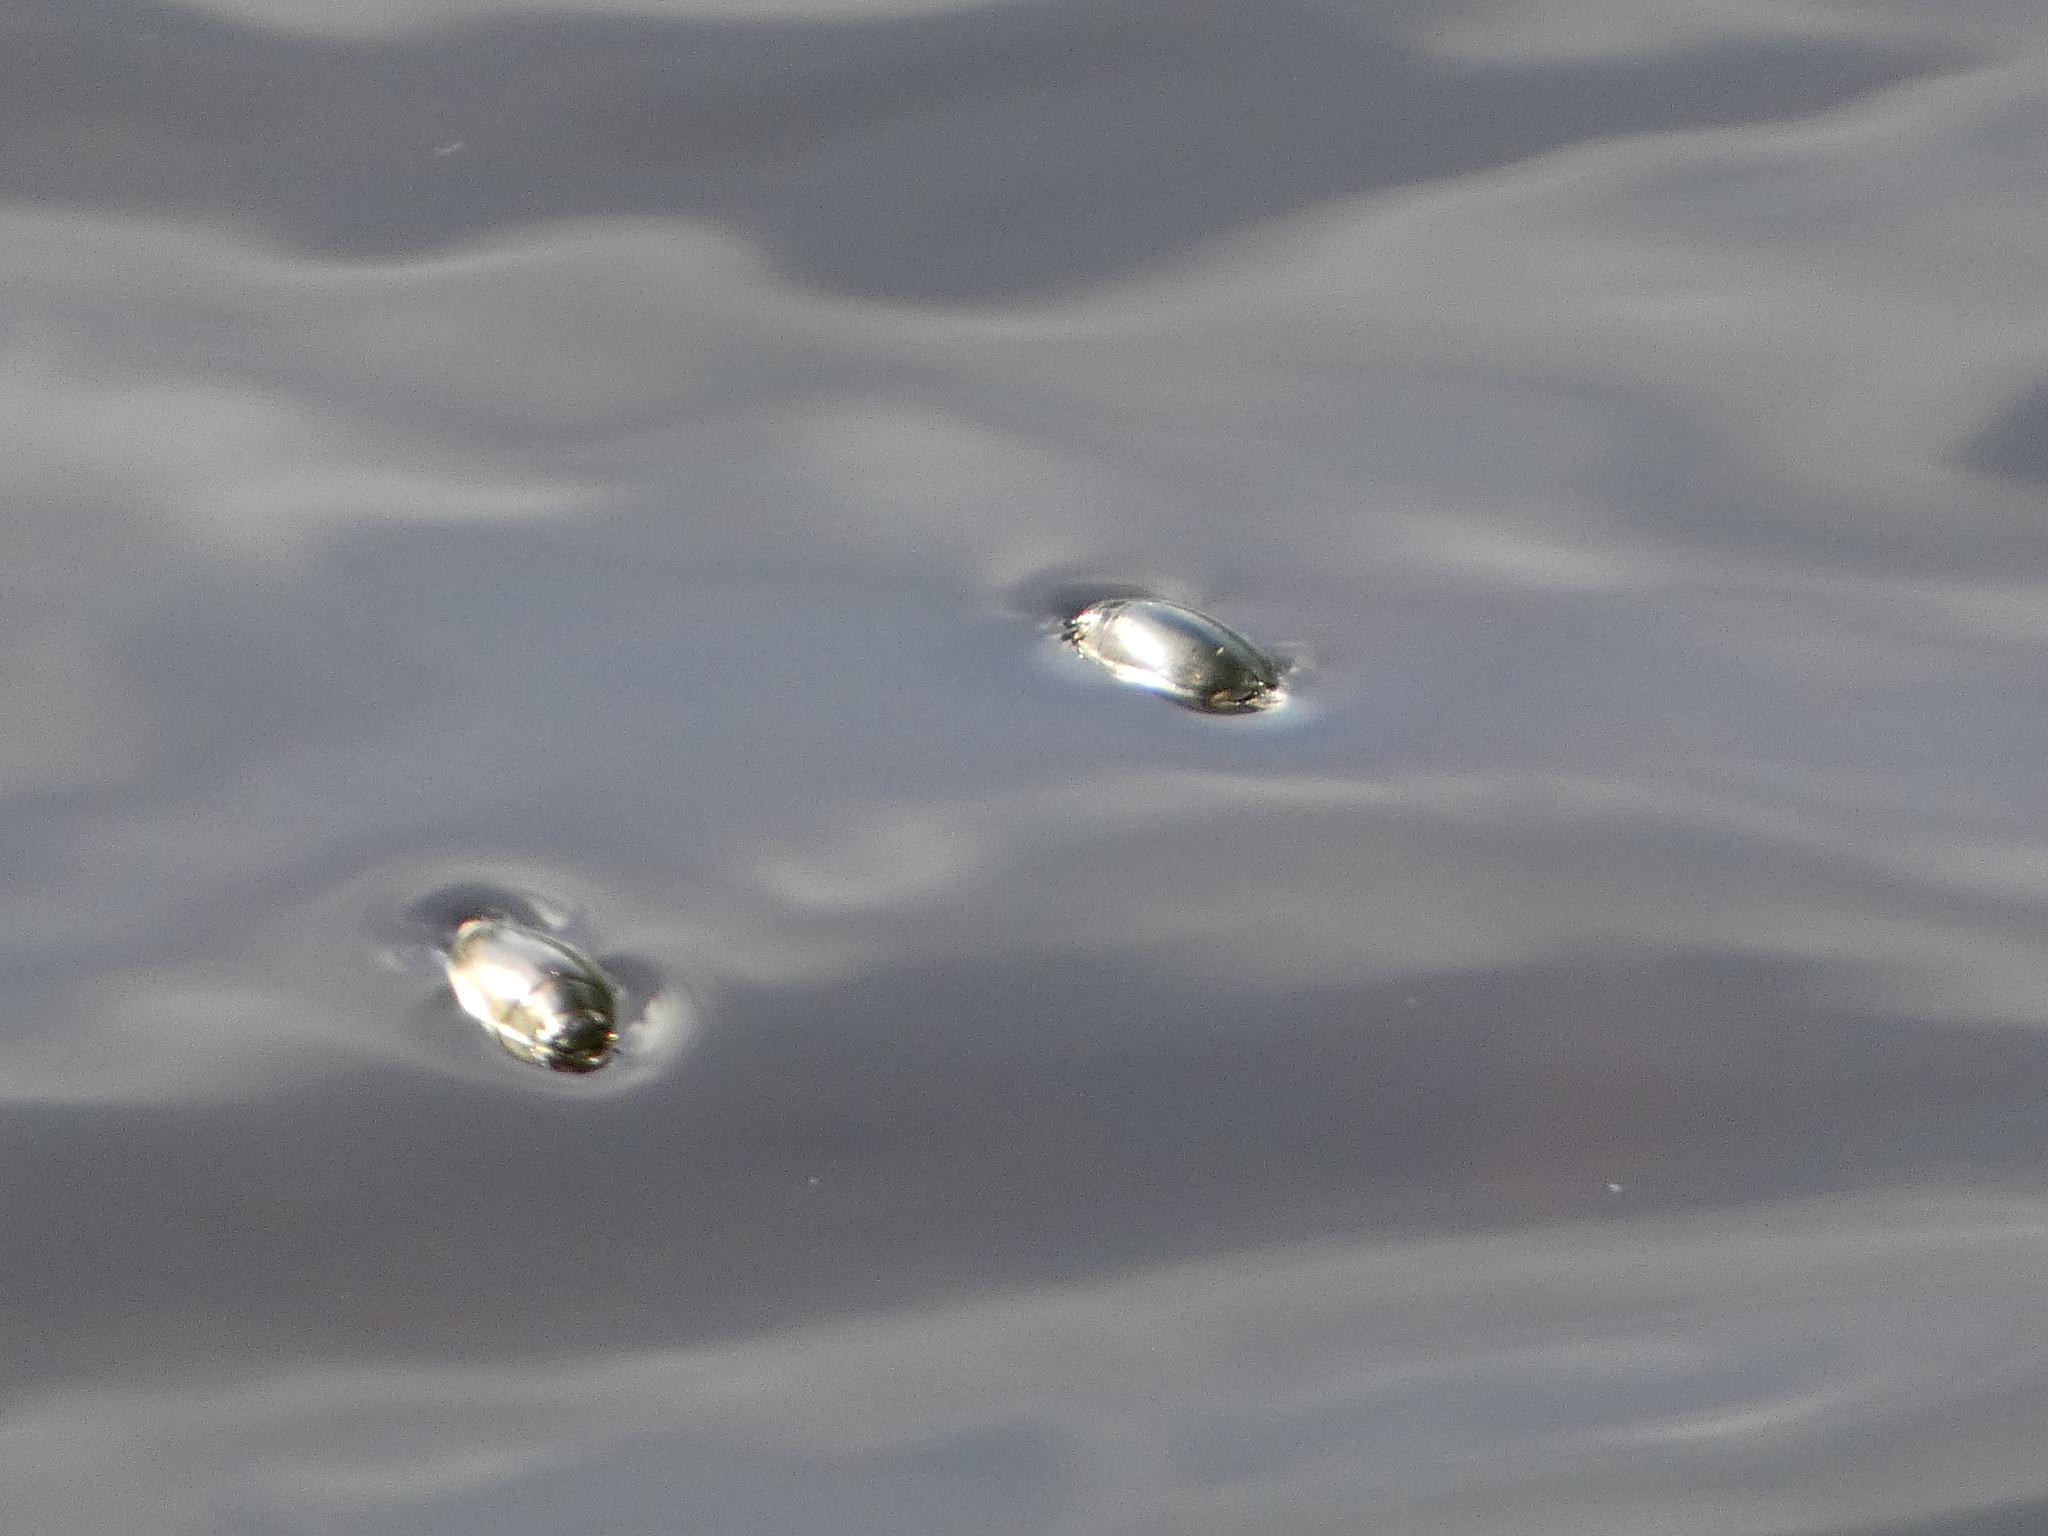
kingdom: Animalia
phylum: Arthropoda
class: Insecta
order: Coleoptera
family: Gyrinidae
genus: Dineutus
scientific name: Dineutus
